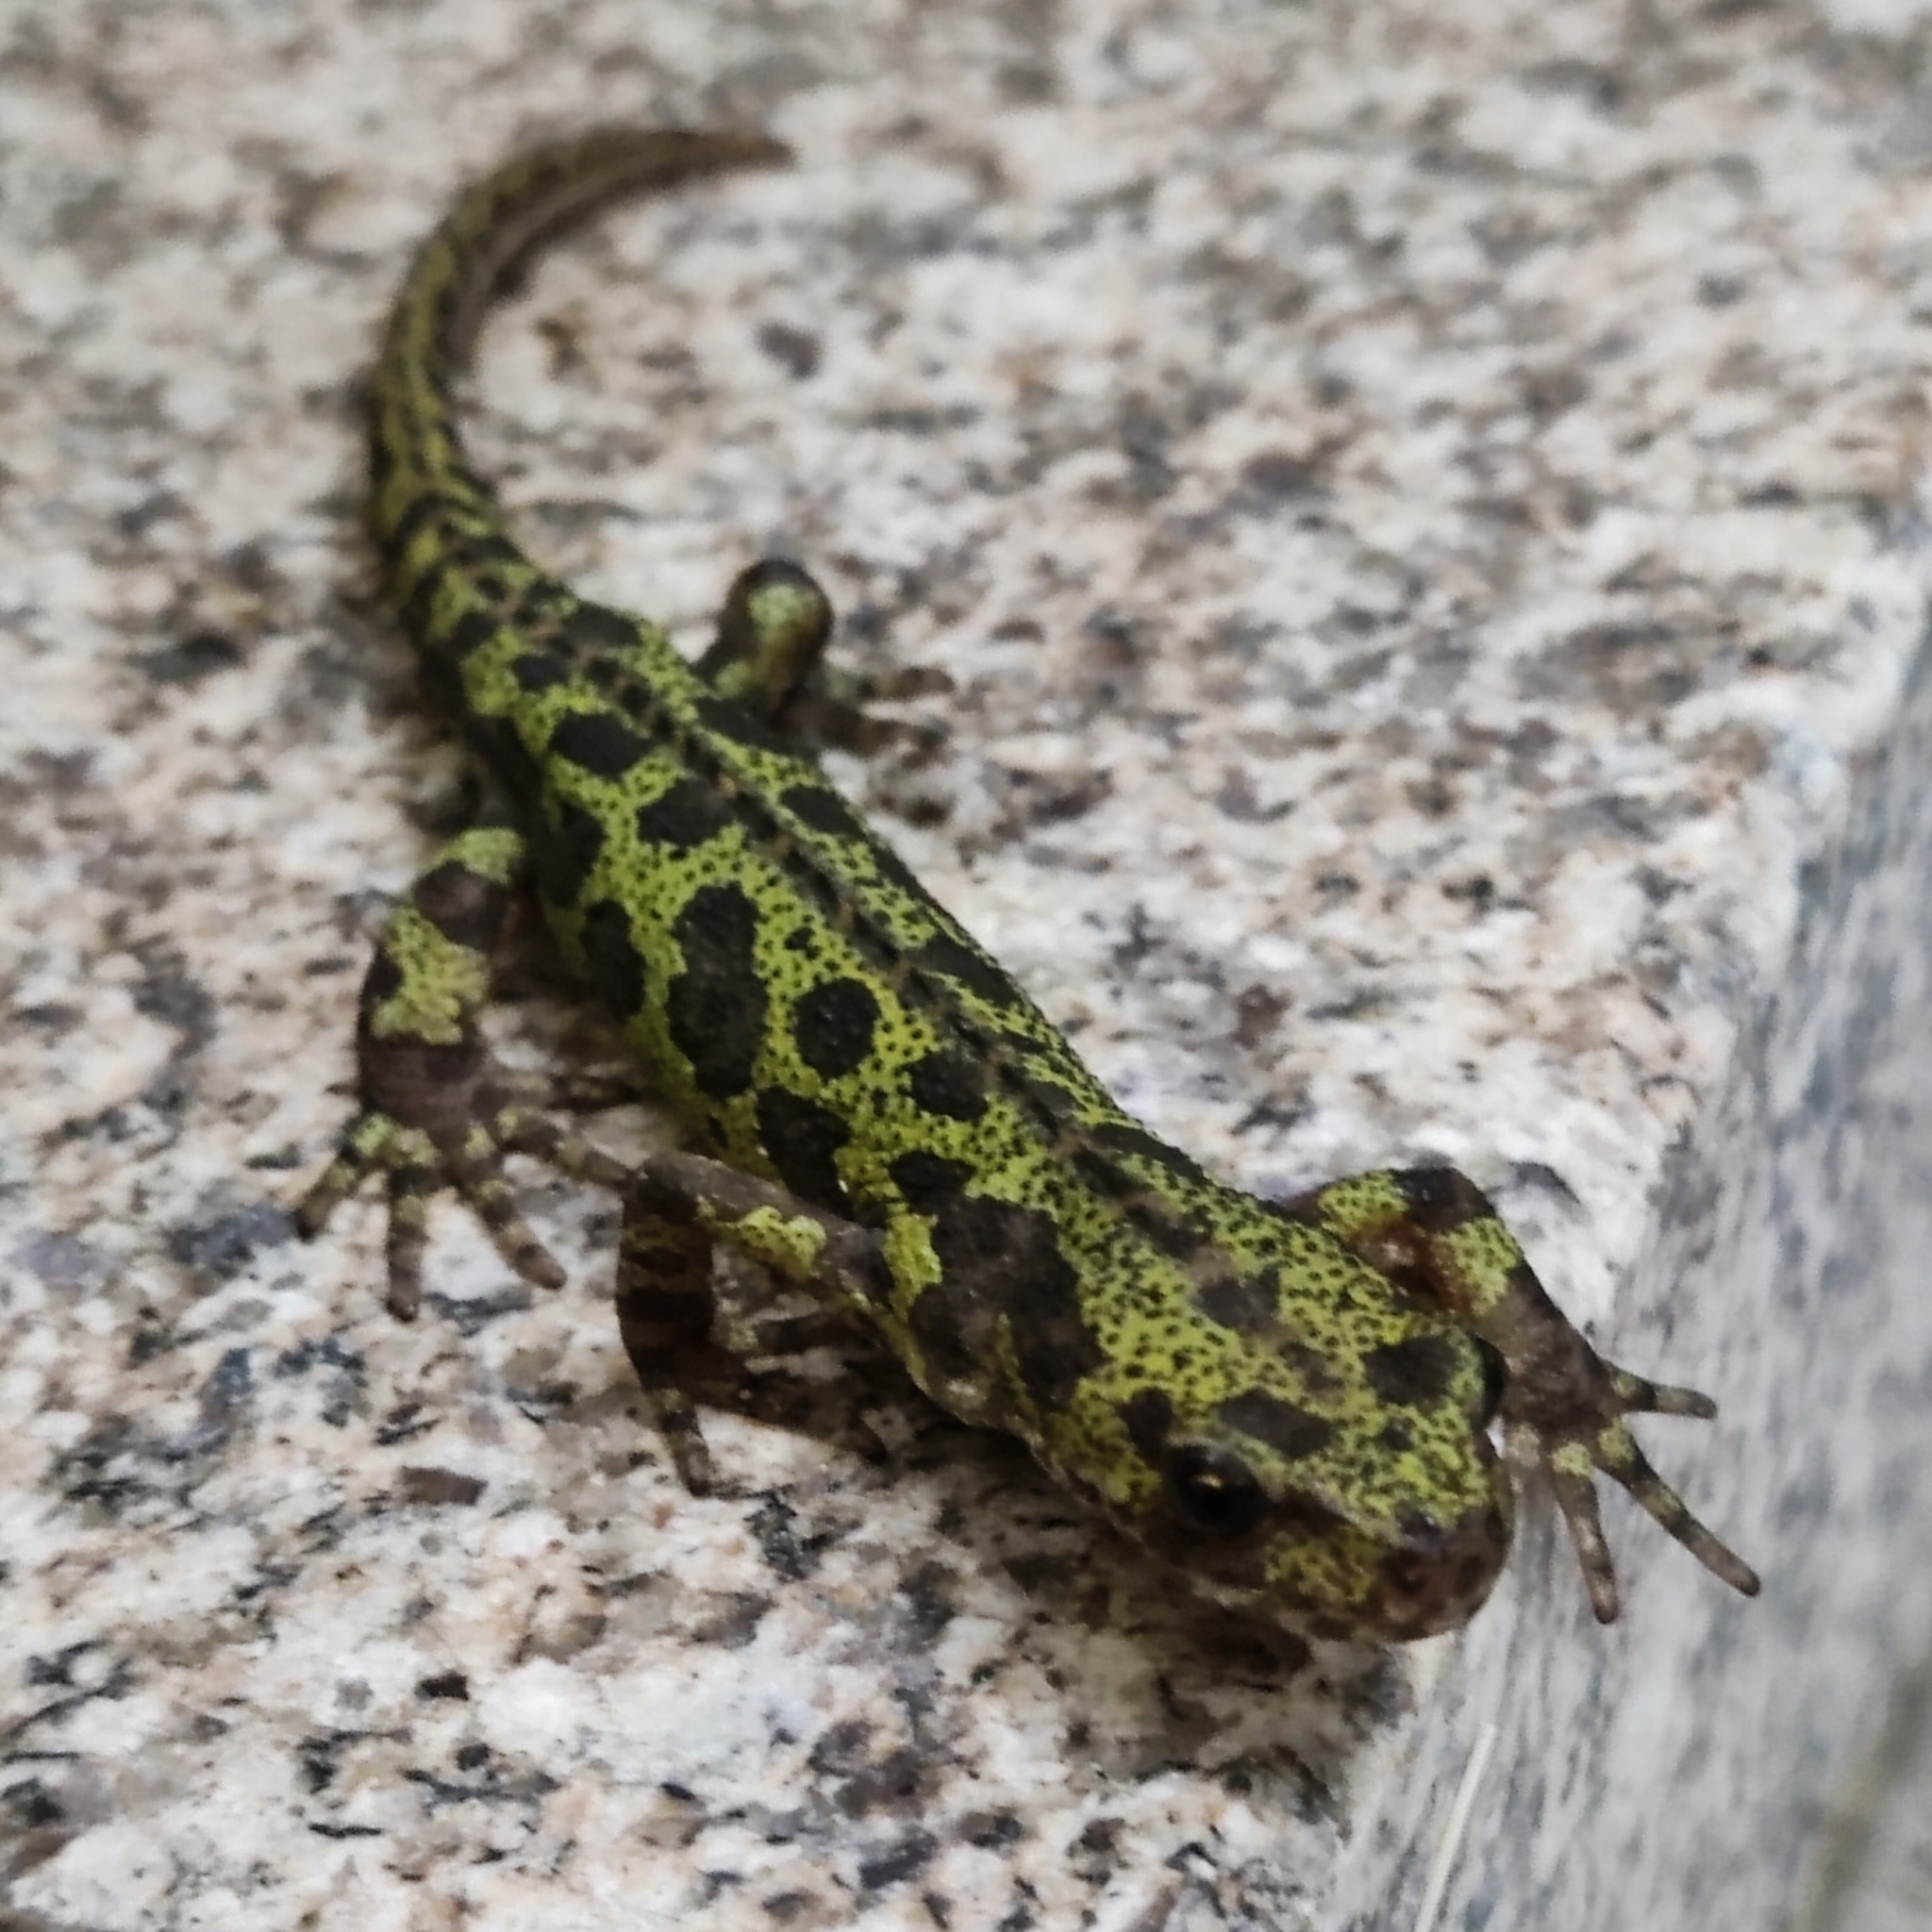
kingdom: Animalia
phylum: Chordata
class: Amphibia
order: Caudata
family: Salamandridae
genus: Triturus
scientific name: Triturus marmoratus
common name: Marbled newt
